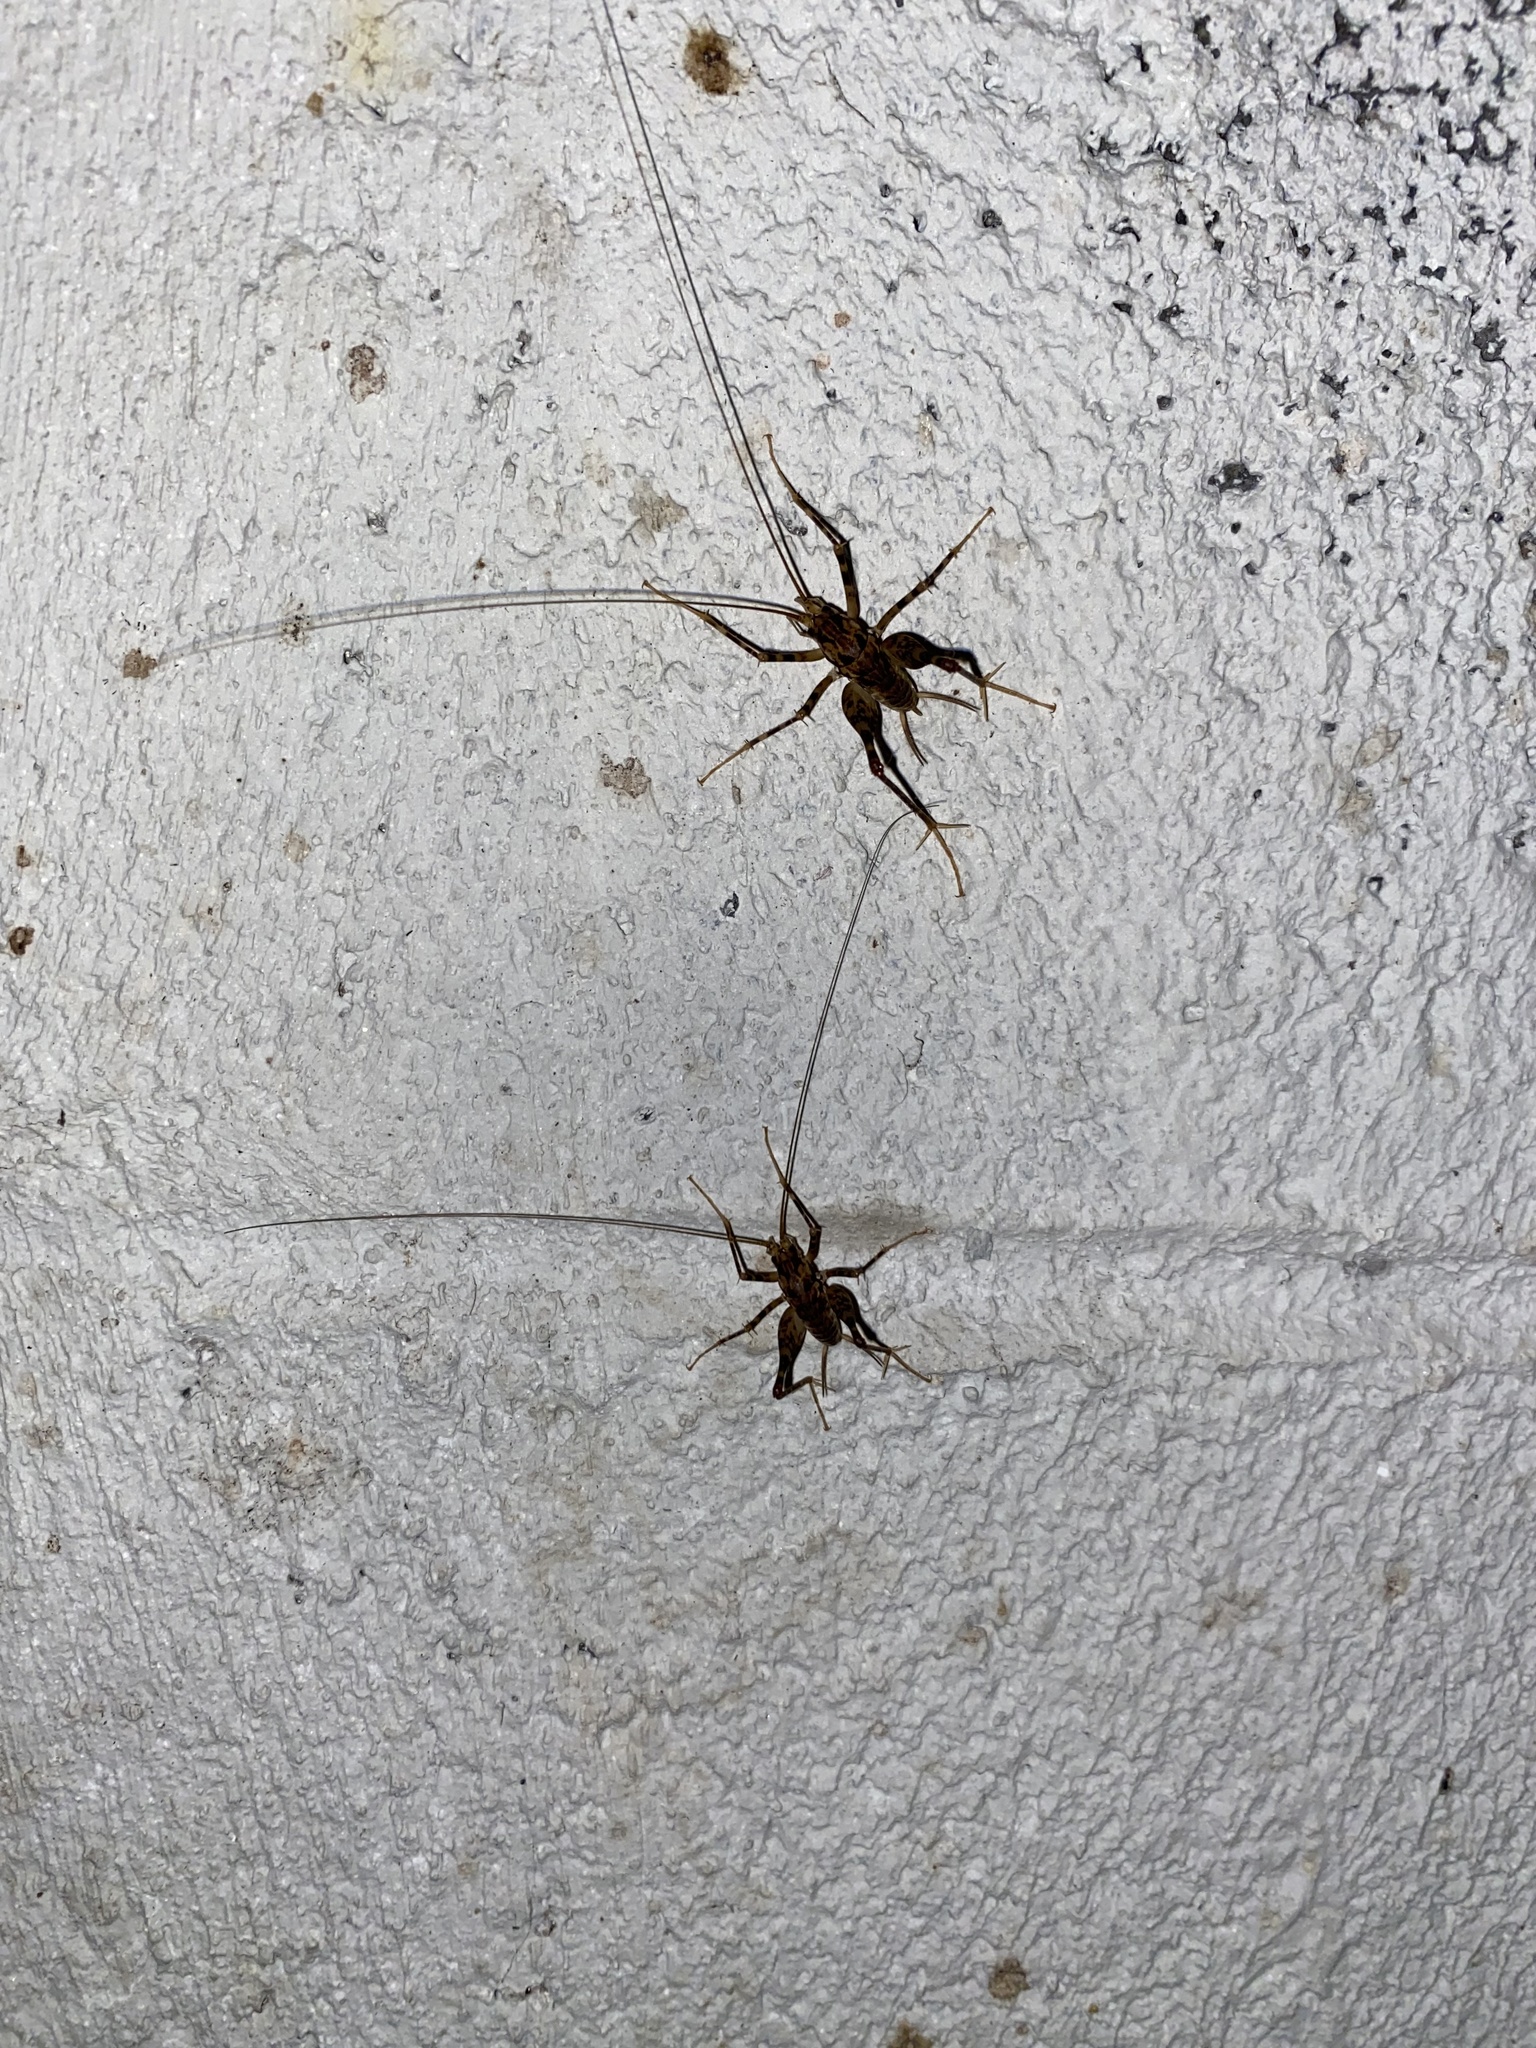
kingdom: Animalia
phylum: Arthropoda
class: Insecta
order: Orthoptera
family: Rhaphidophoridae
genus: Diestrammena
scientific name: Diestrammena japanica
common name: Japanese camel cricket
